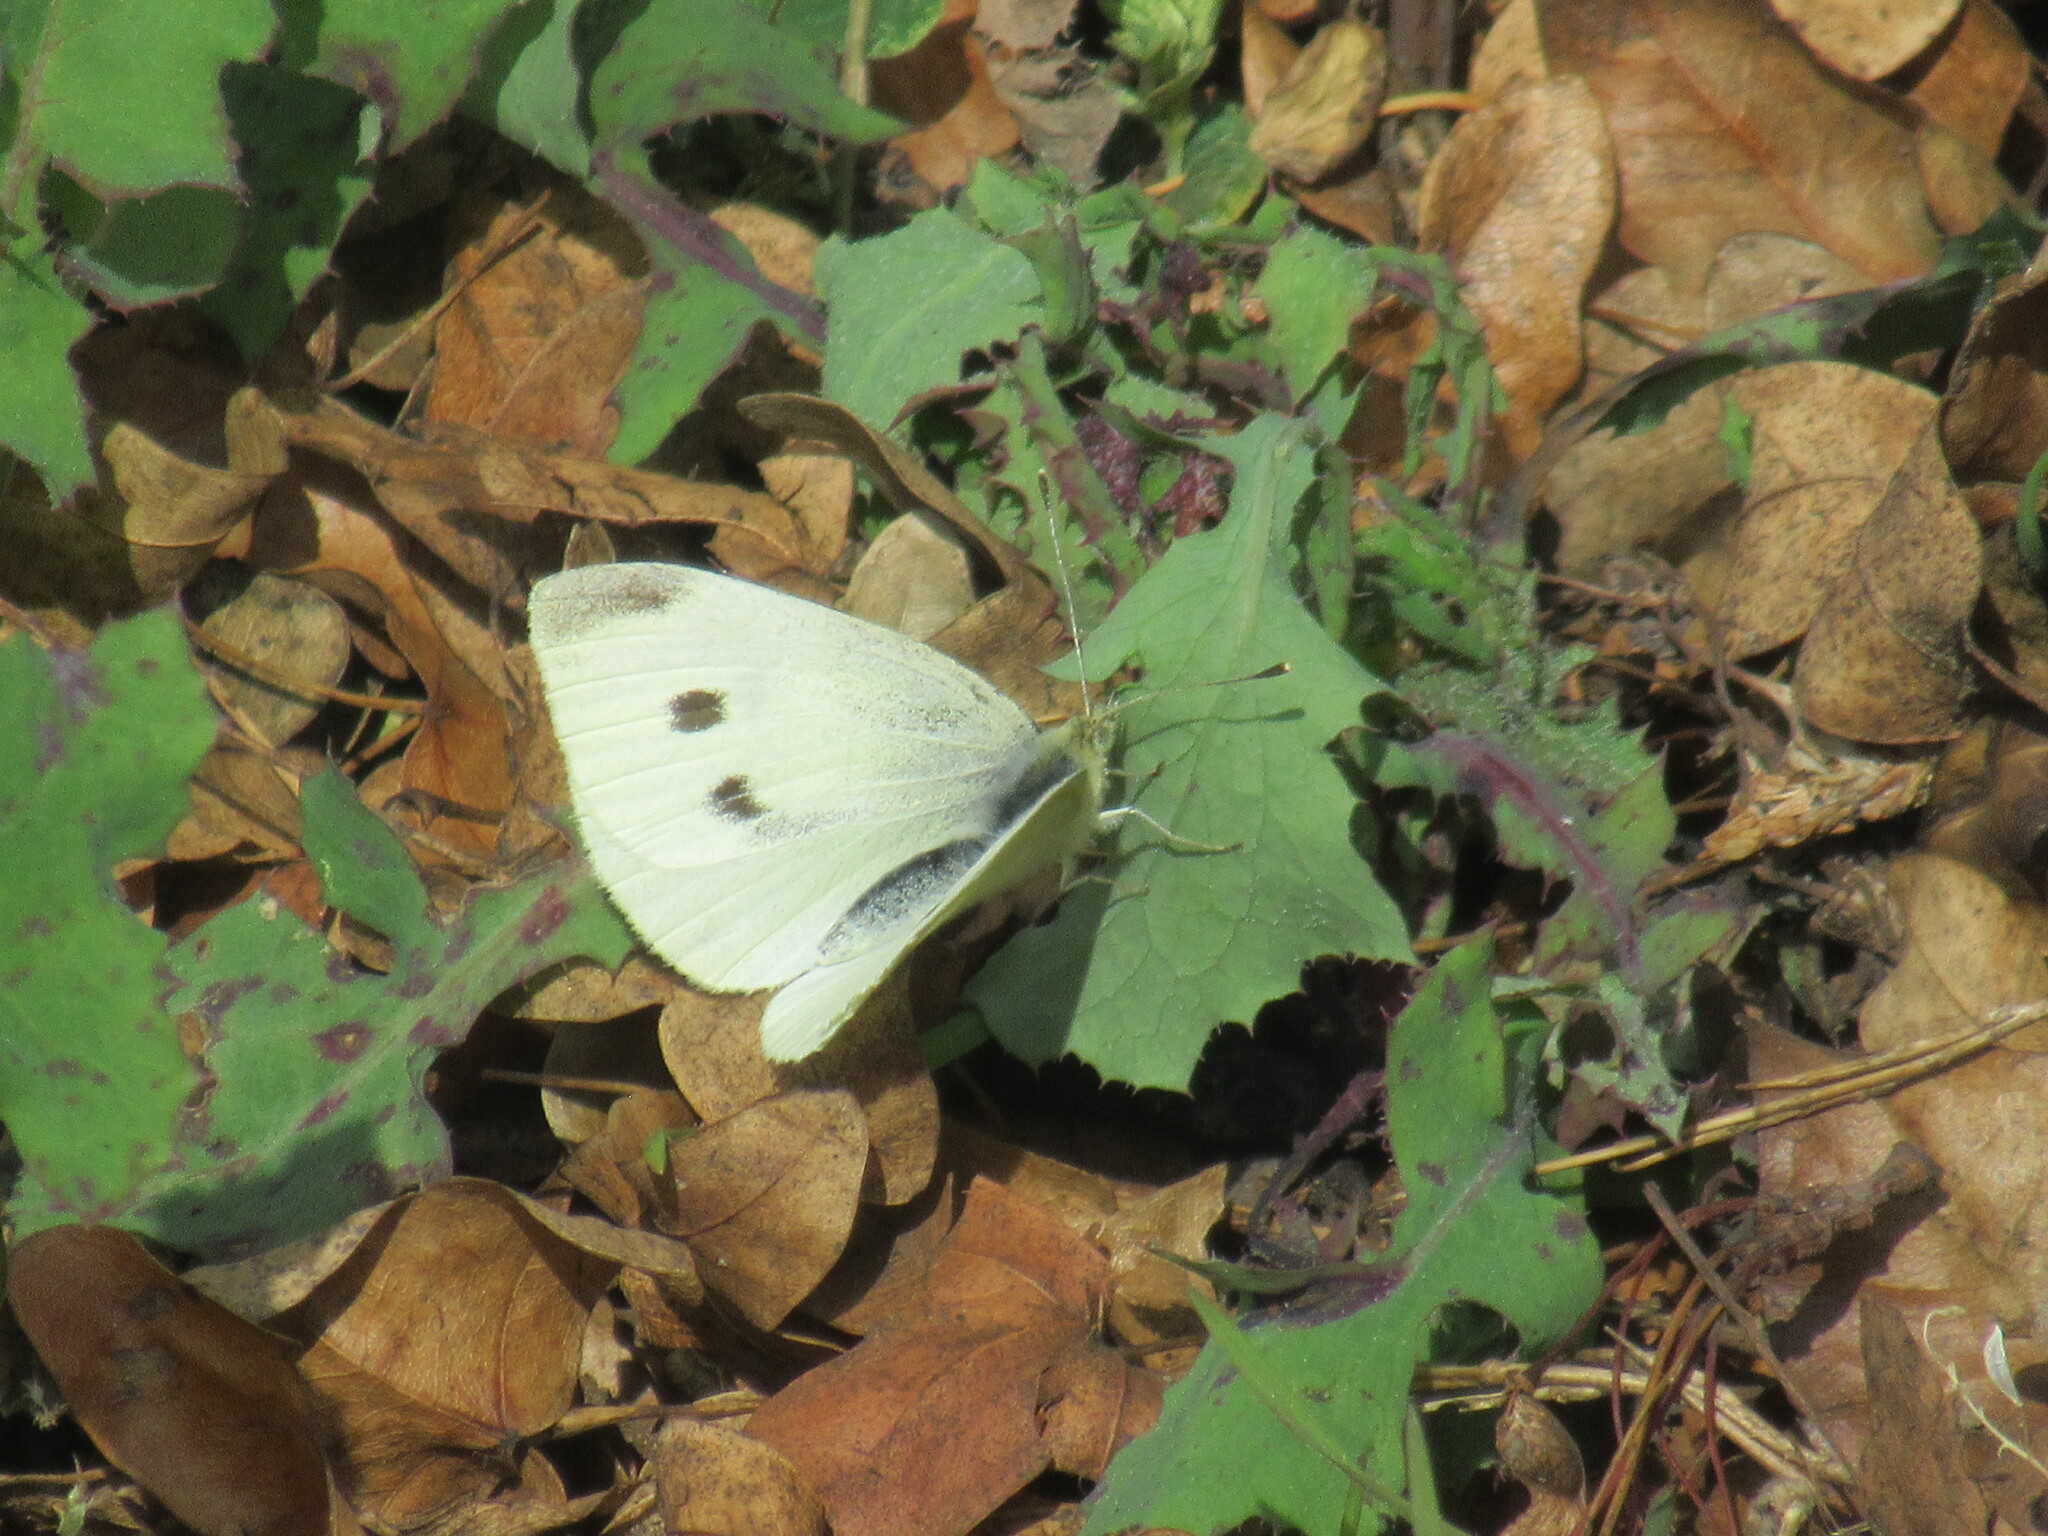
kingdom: Animalia
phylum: Arthropoda
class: Insecta
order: Lepidoptera
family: Pieridae
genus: Pieris
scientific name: Pieris rapae
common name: Small white
